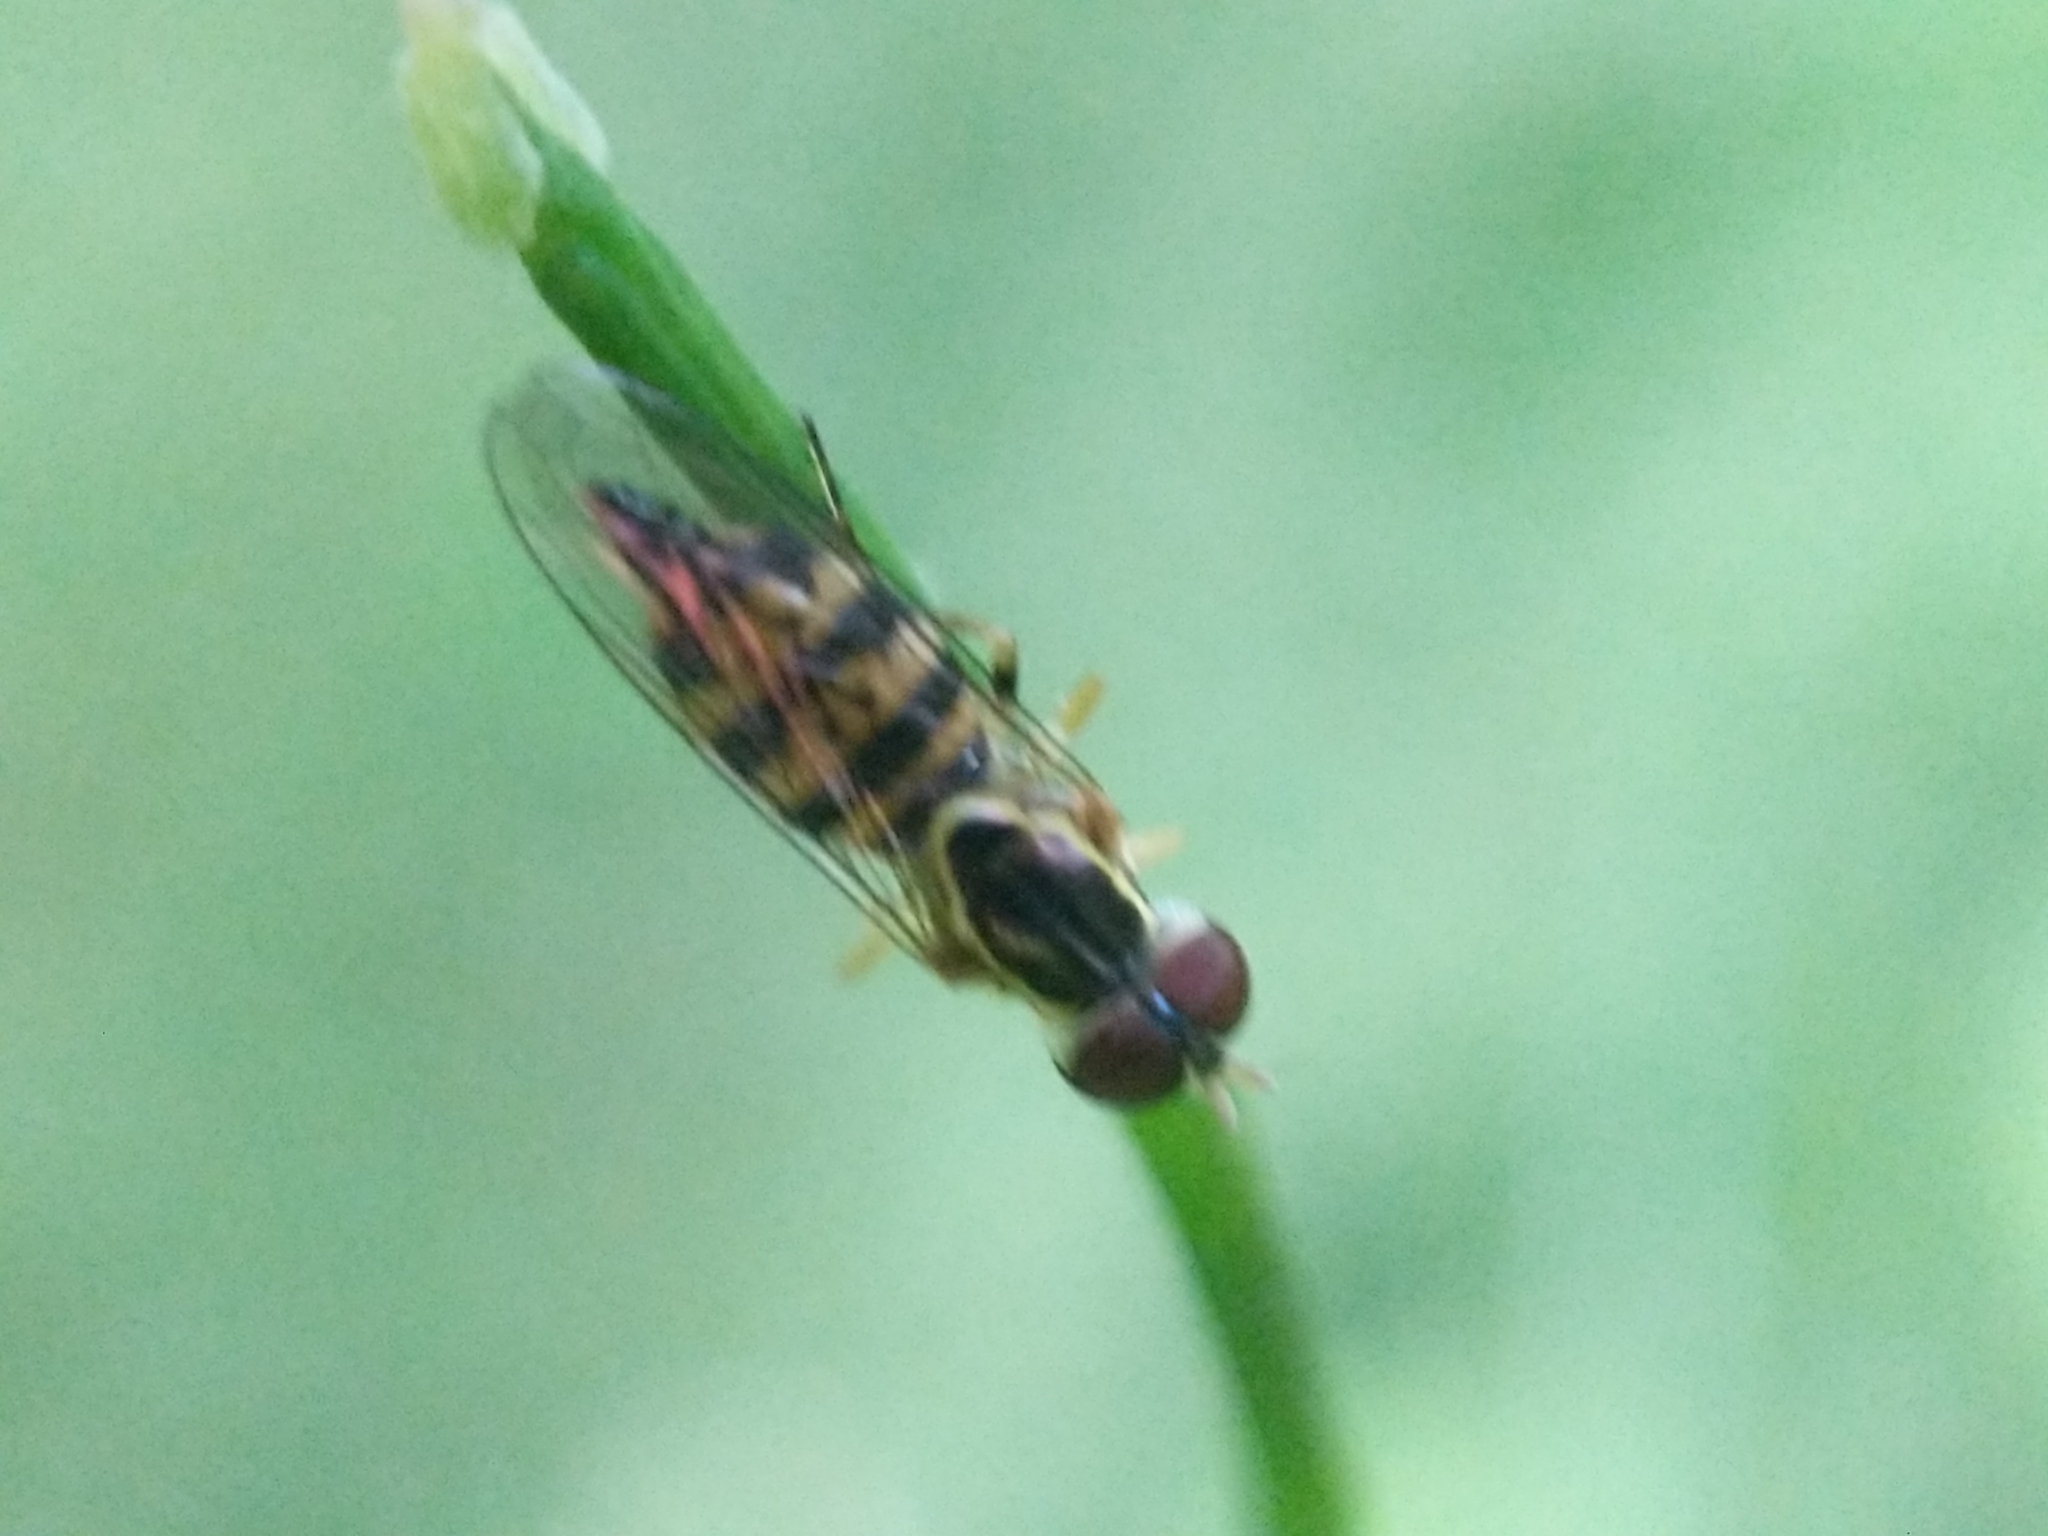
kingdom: Animalia
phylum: Arthropoda
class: Insecta
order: Diptera
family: Syrphidae
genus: Toxomerus
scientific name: Toxomerus geminatus
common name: Eastern calligrapher
